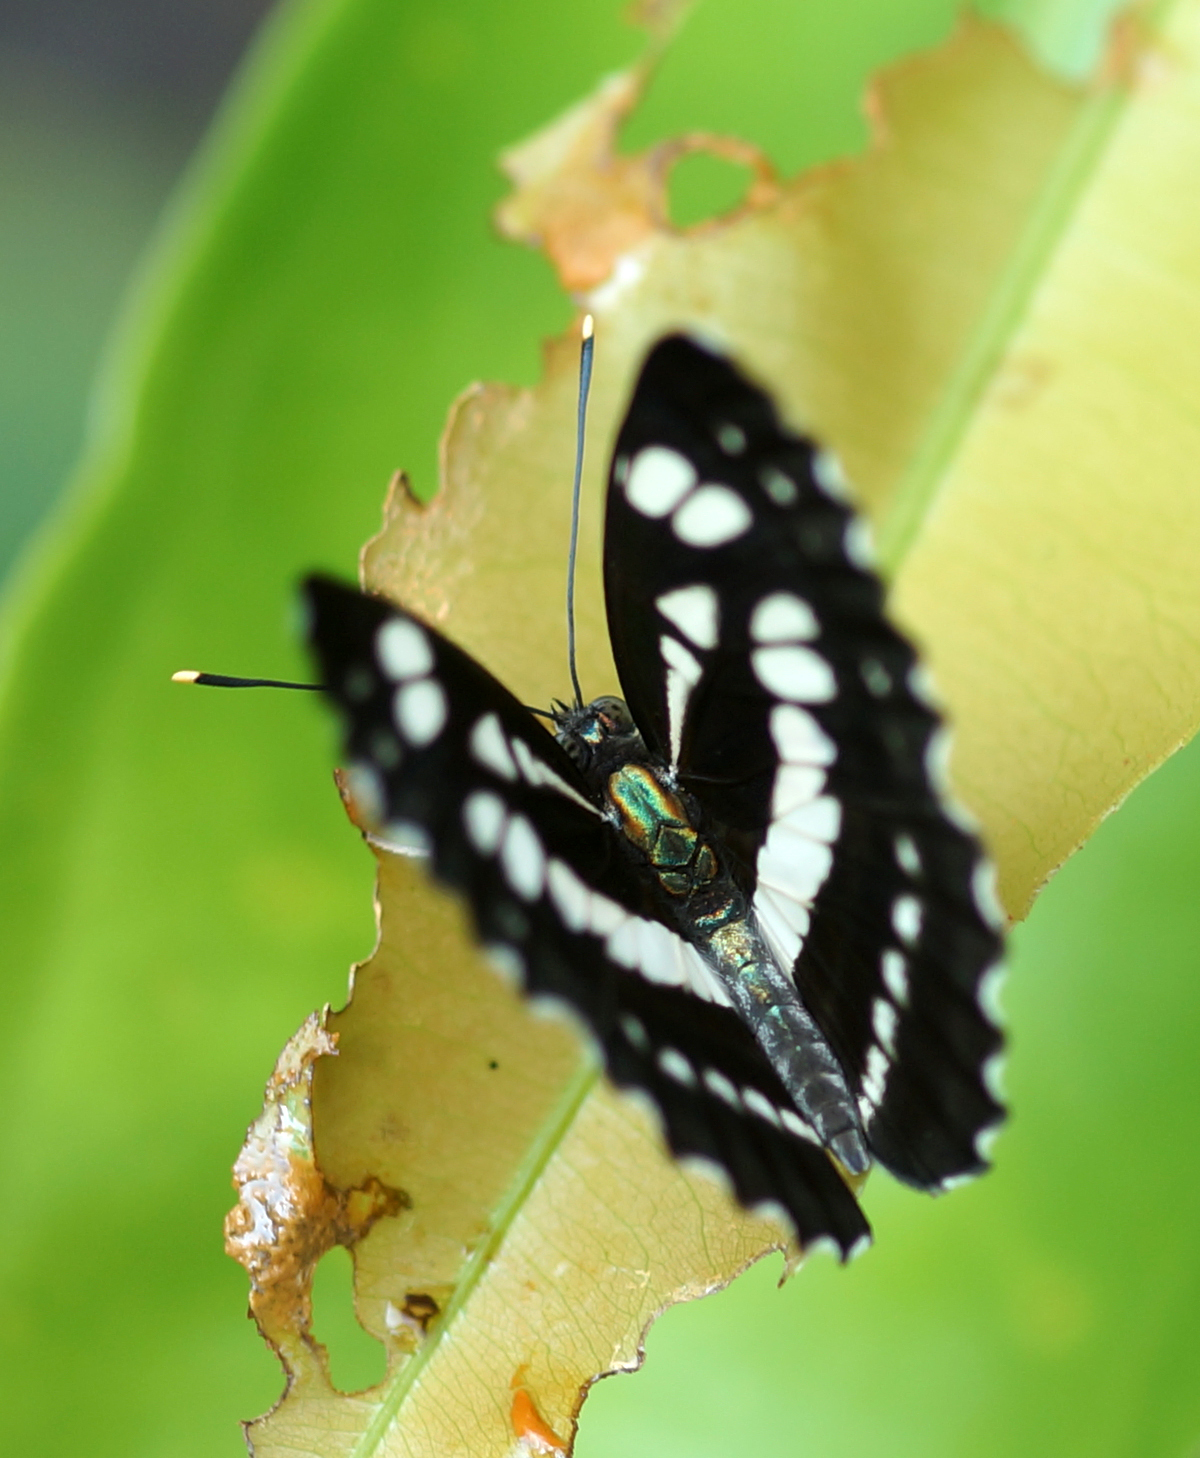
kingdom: Animalia
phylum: Arthropoda
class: Insecta
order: Lepidoptera
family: Nymphalidae
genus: Parathyma
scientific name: Parathyma perius
